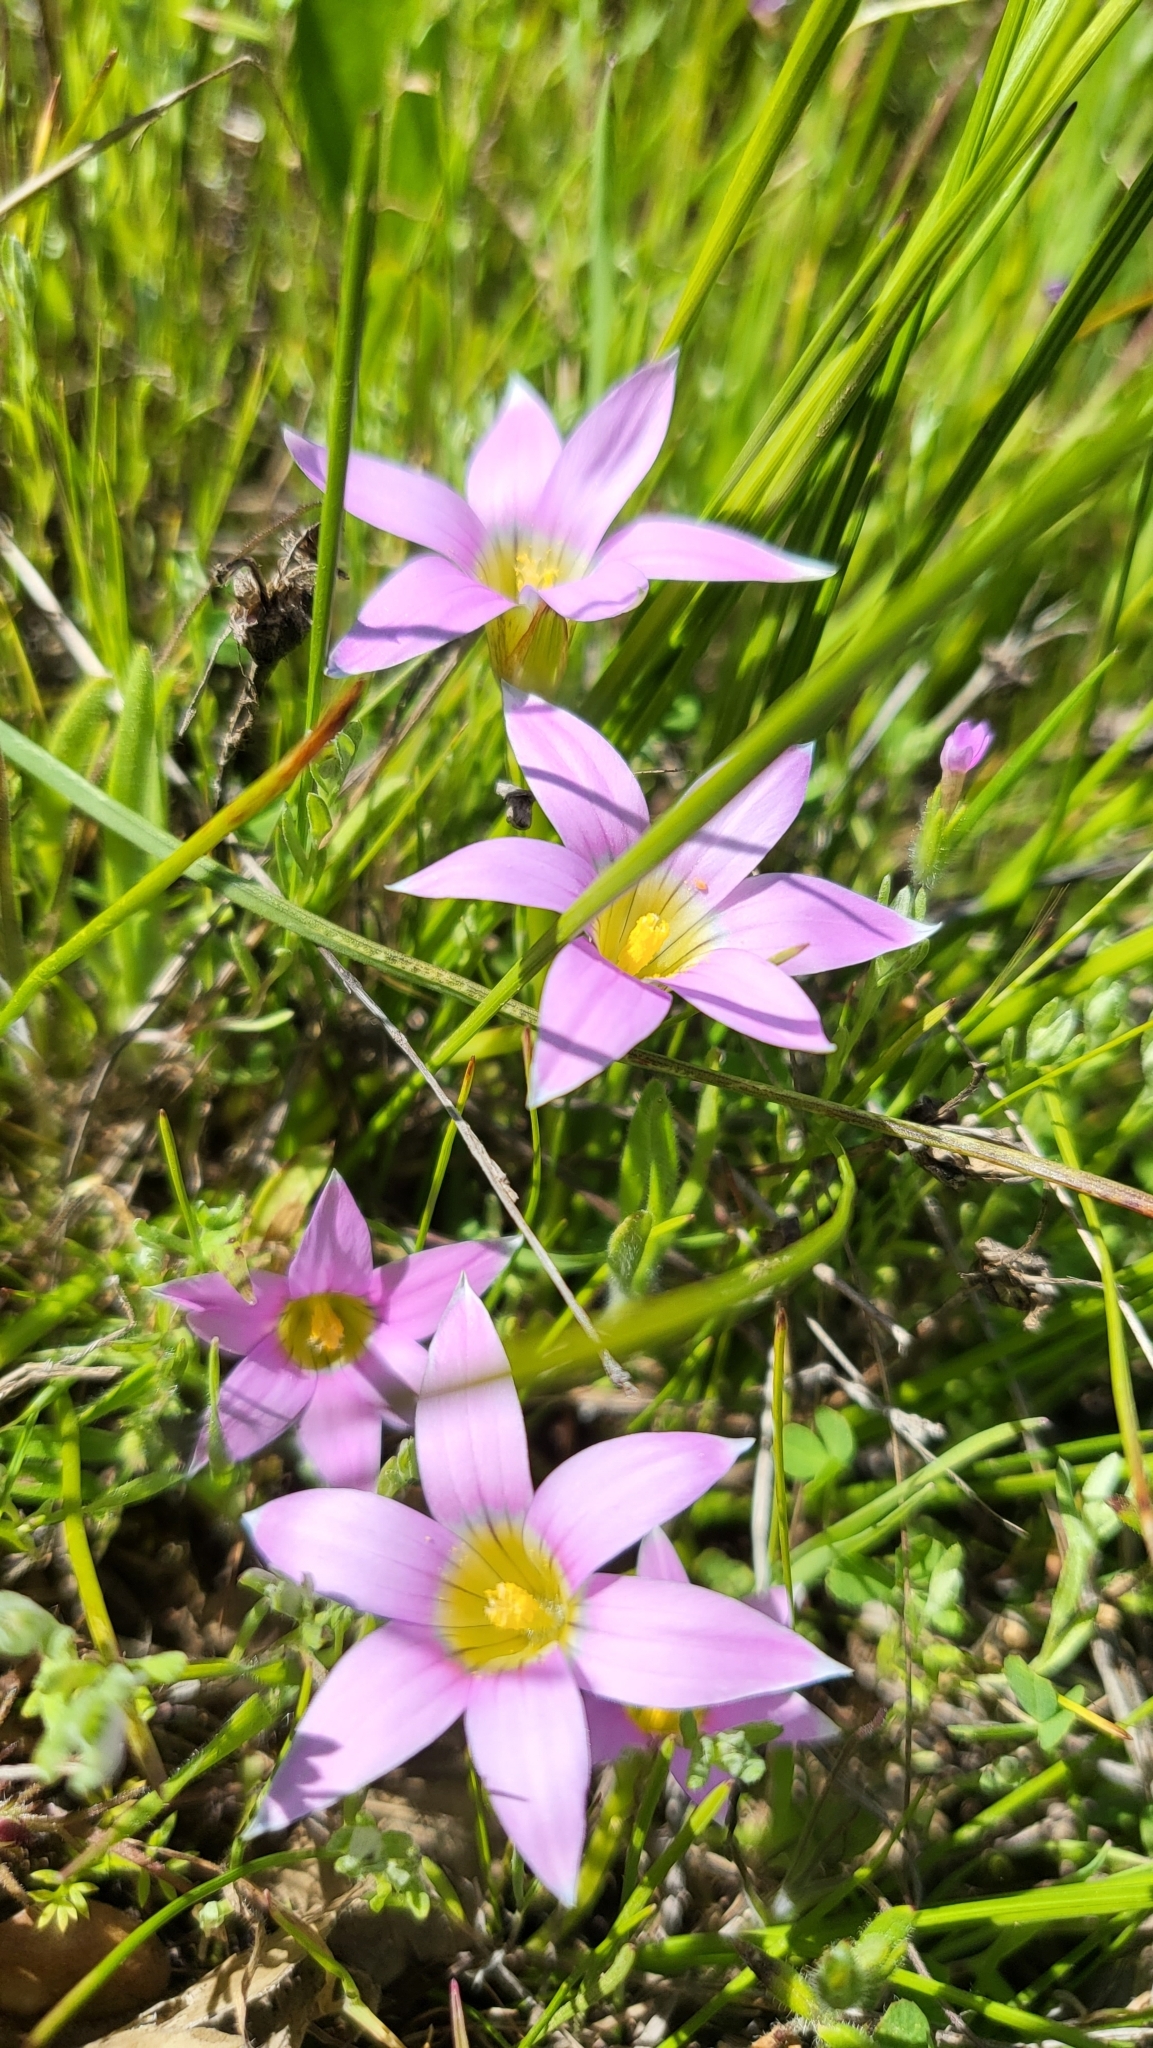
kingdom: Plantae
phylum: Tracheophyta
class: Liliopsida
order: Asparagales
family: Iridaceae
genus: Romulea
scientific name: Romulea rosea
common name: Oniongrass
